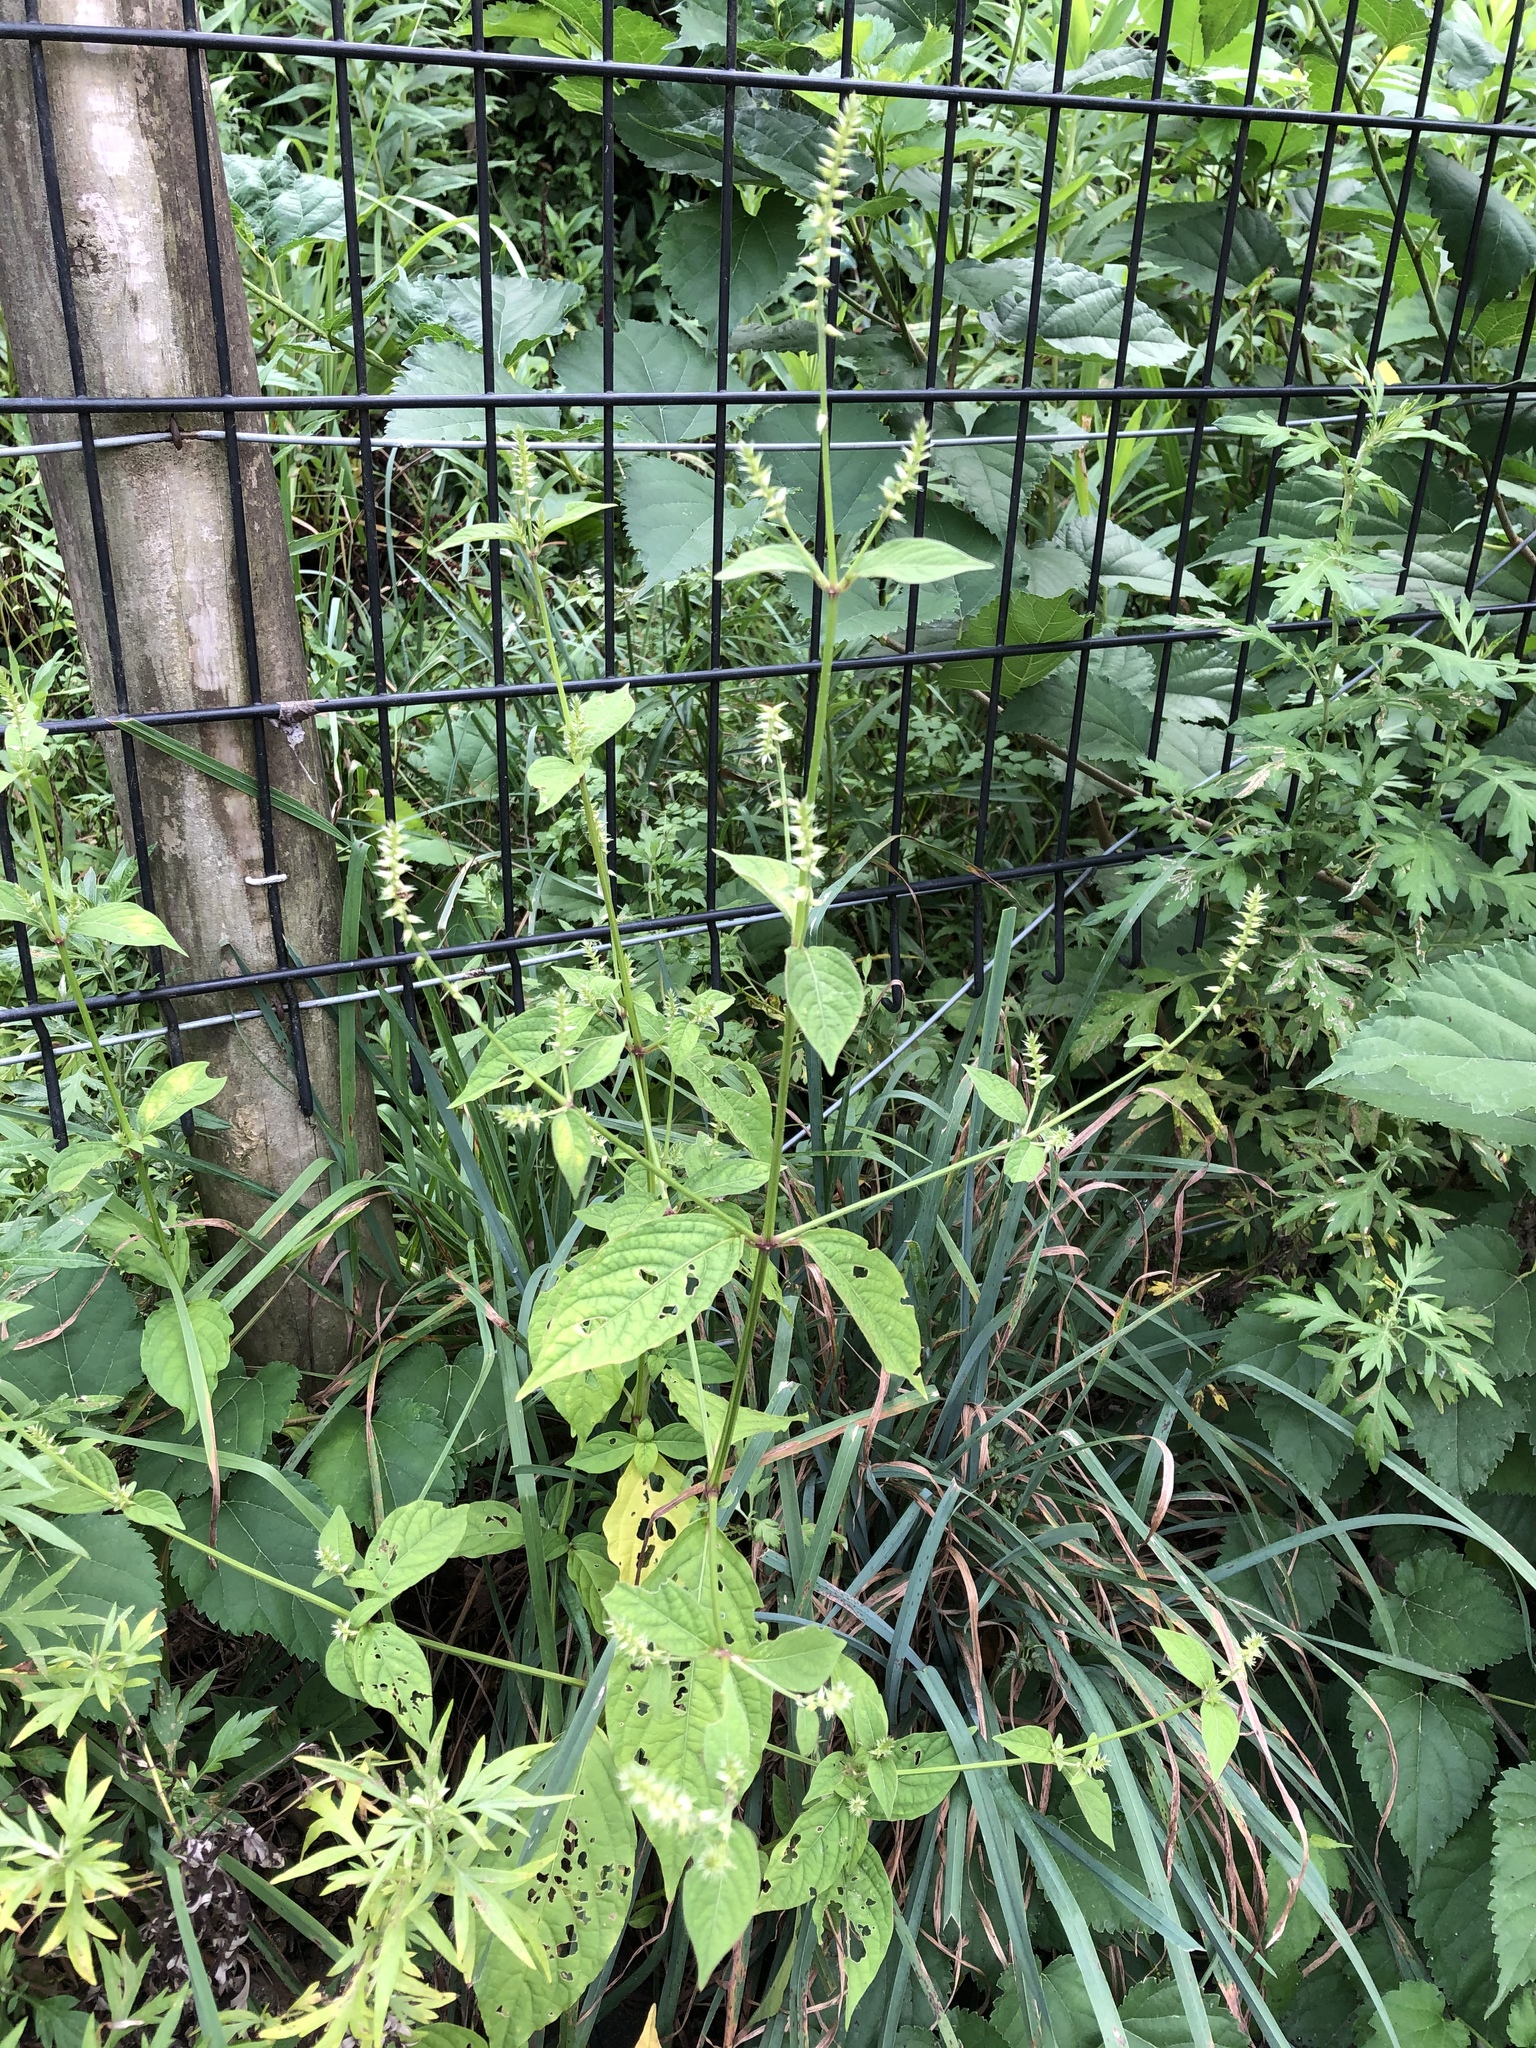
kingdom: Plantae
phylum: Tracheophyta
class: Magnoliopsida
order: Caryophyllales
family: Amaranthaceae
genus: Achyranthes
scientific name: Achyranthes bidentata
